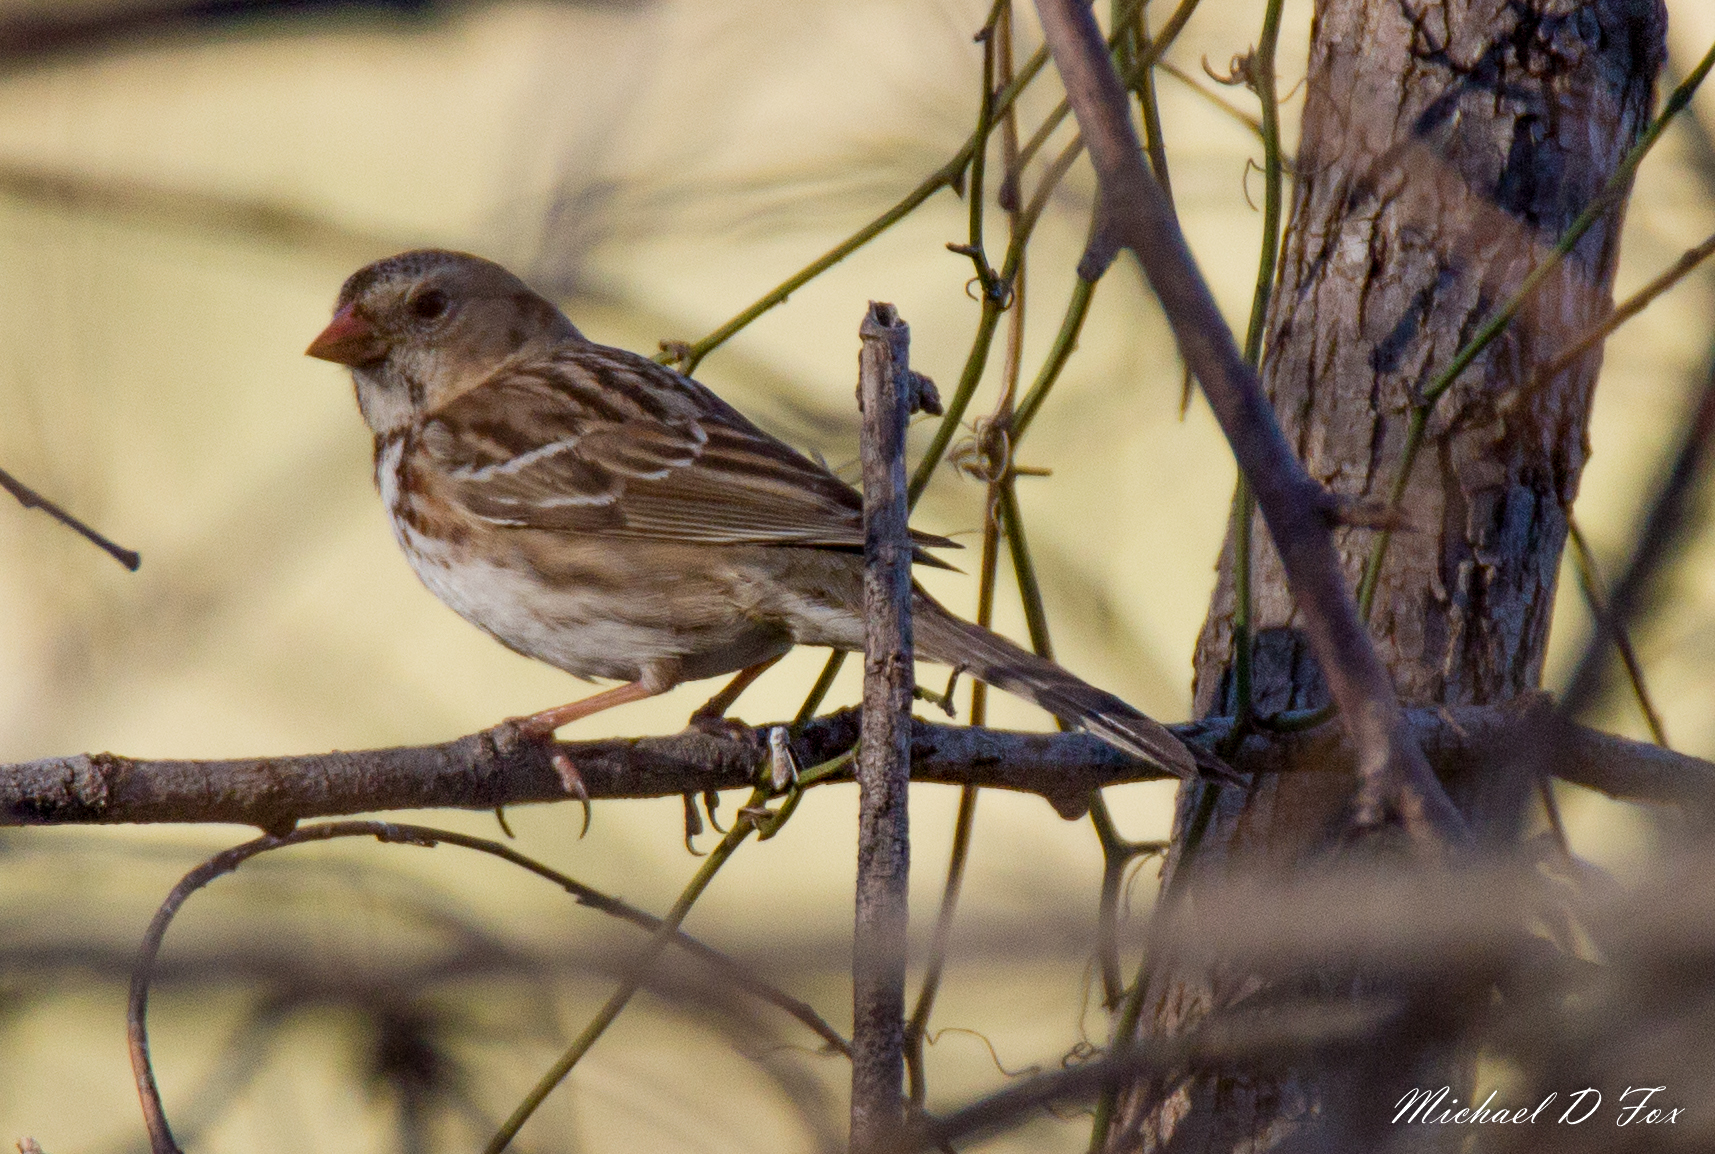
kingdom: Animalia
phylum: Chordata
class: Aves
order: Passeriformes
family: Passerellidae
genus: Zonotrichia
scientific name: Zonotrichia querula
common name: Harris's sparrow
